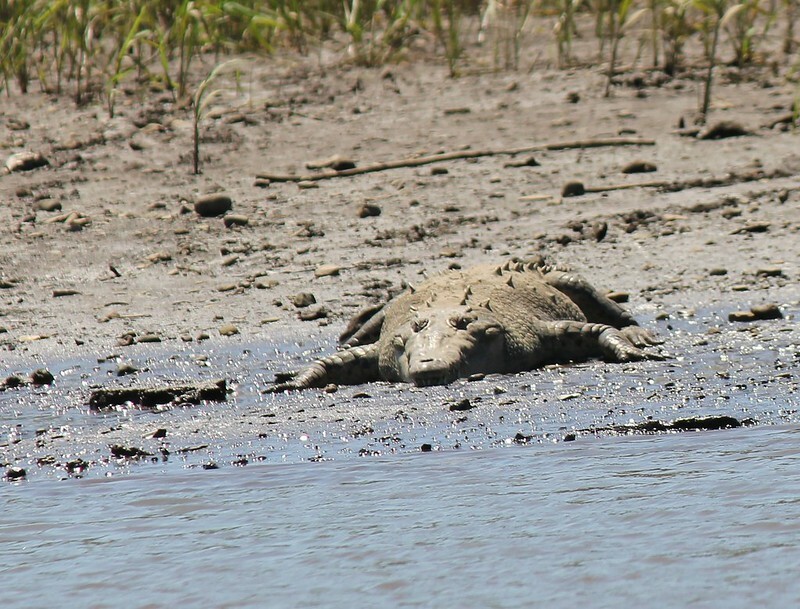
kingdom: Animalia
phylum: Chordata
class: Crocodylia
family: Crocodylidae
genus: Crocodylus
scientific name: Crocodylus acutus
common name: American crocodile
